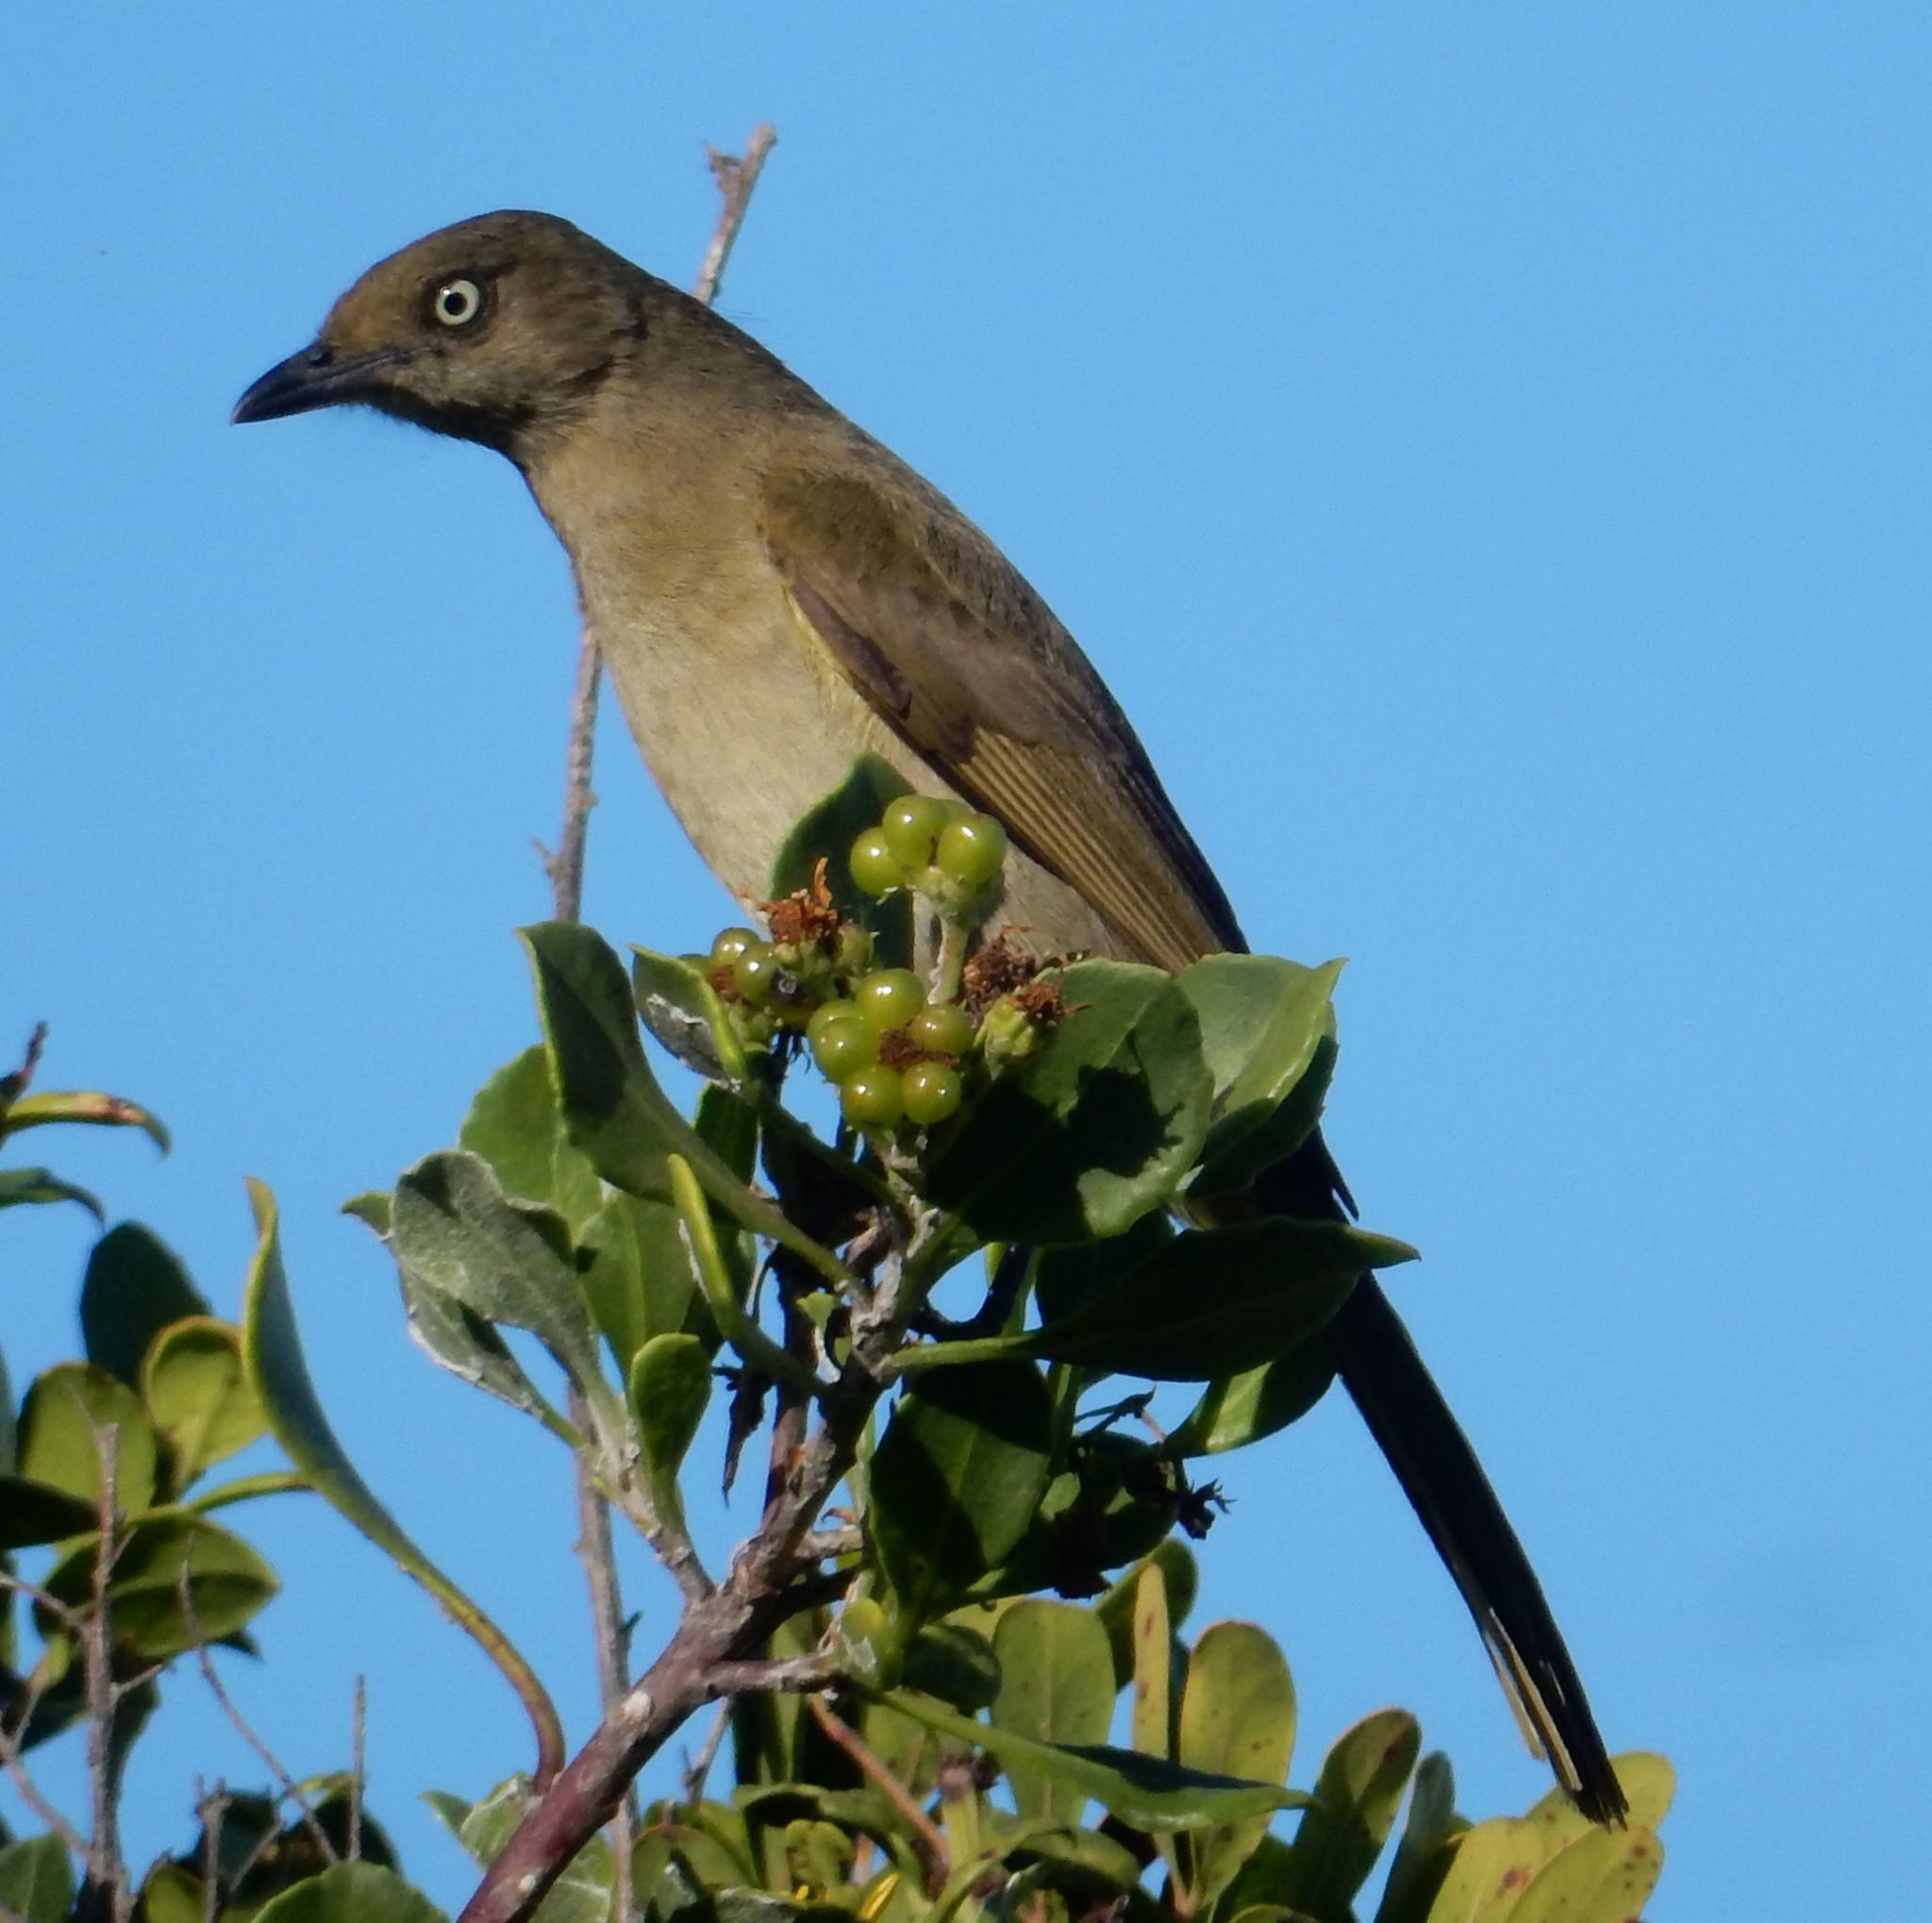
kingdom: Animalia
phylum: Chordata
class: Aves
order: Passeriformes
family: Pycnonotidae
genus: Andropadus
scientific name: Andropadus importunus
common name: Sombre greenbul
